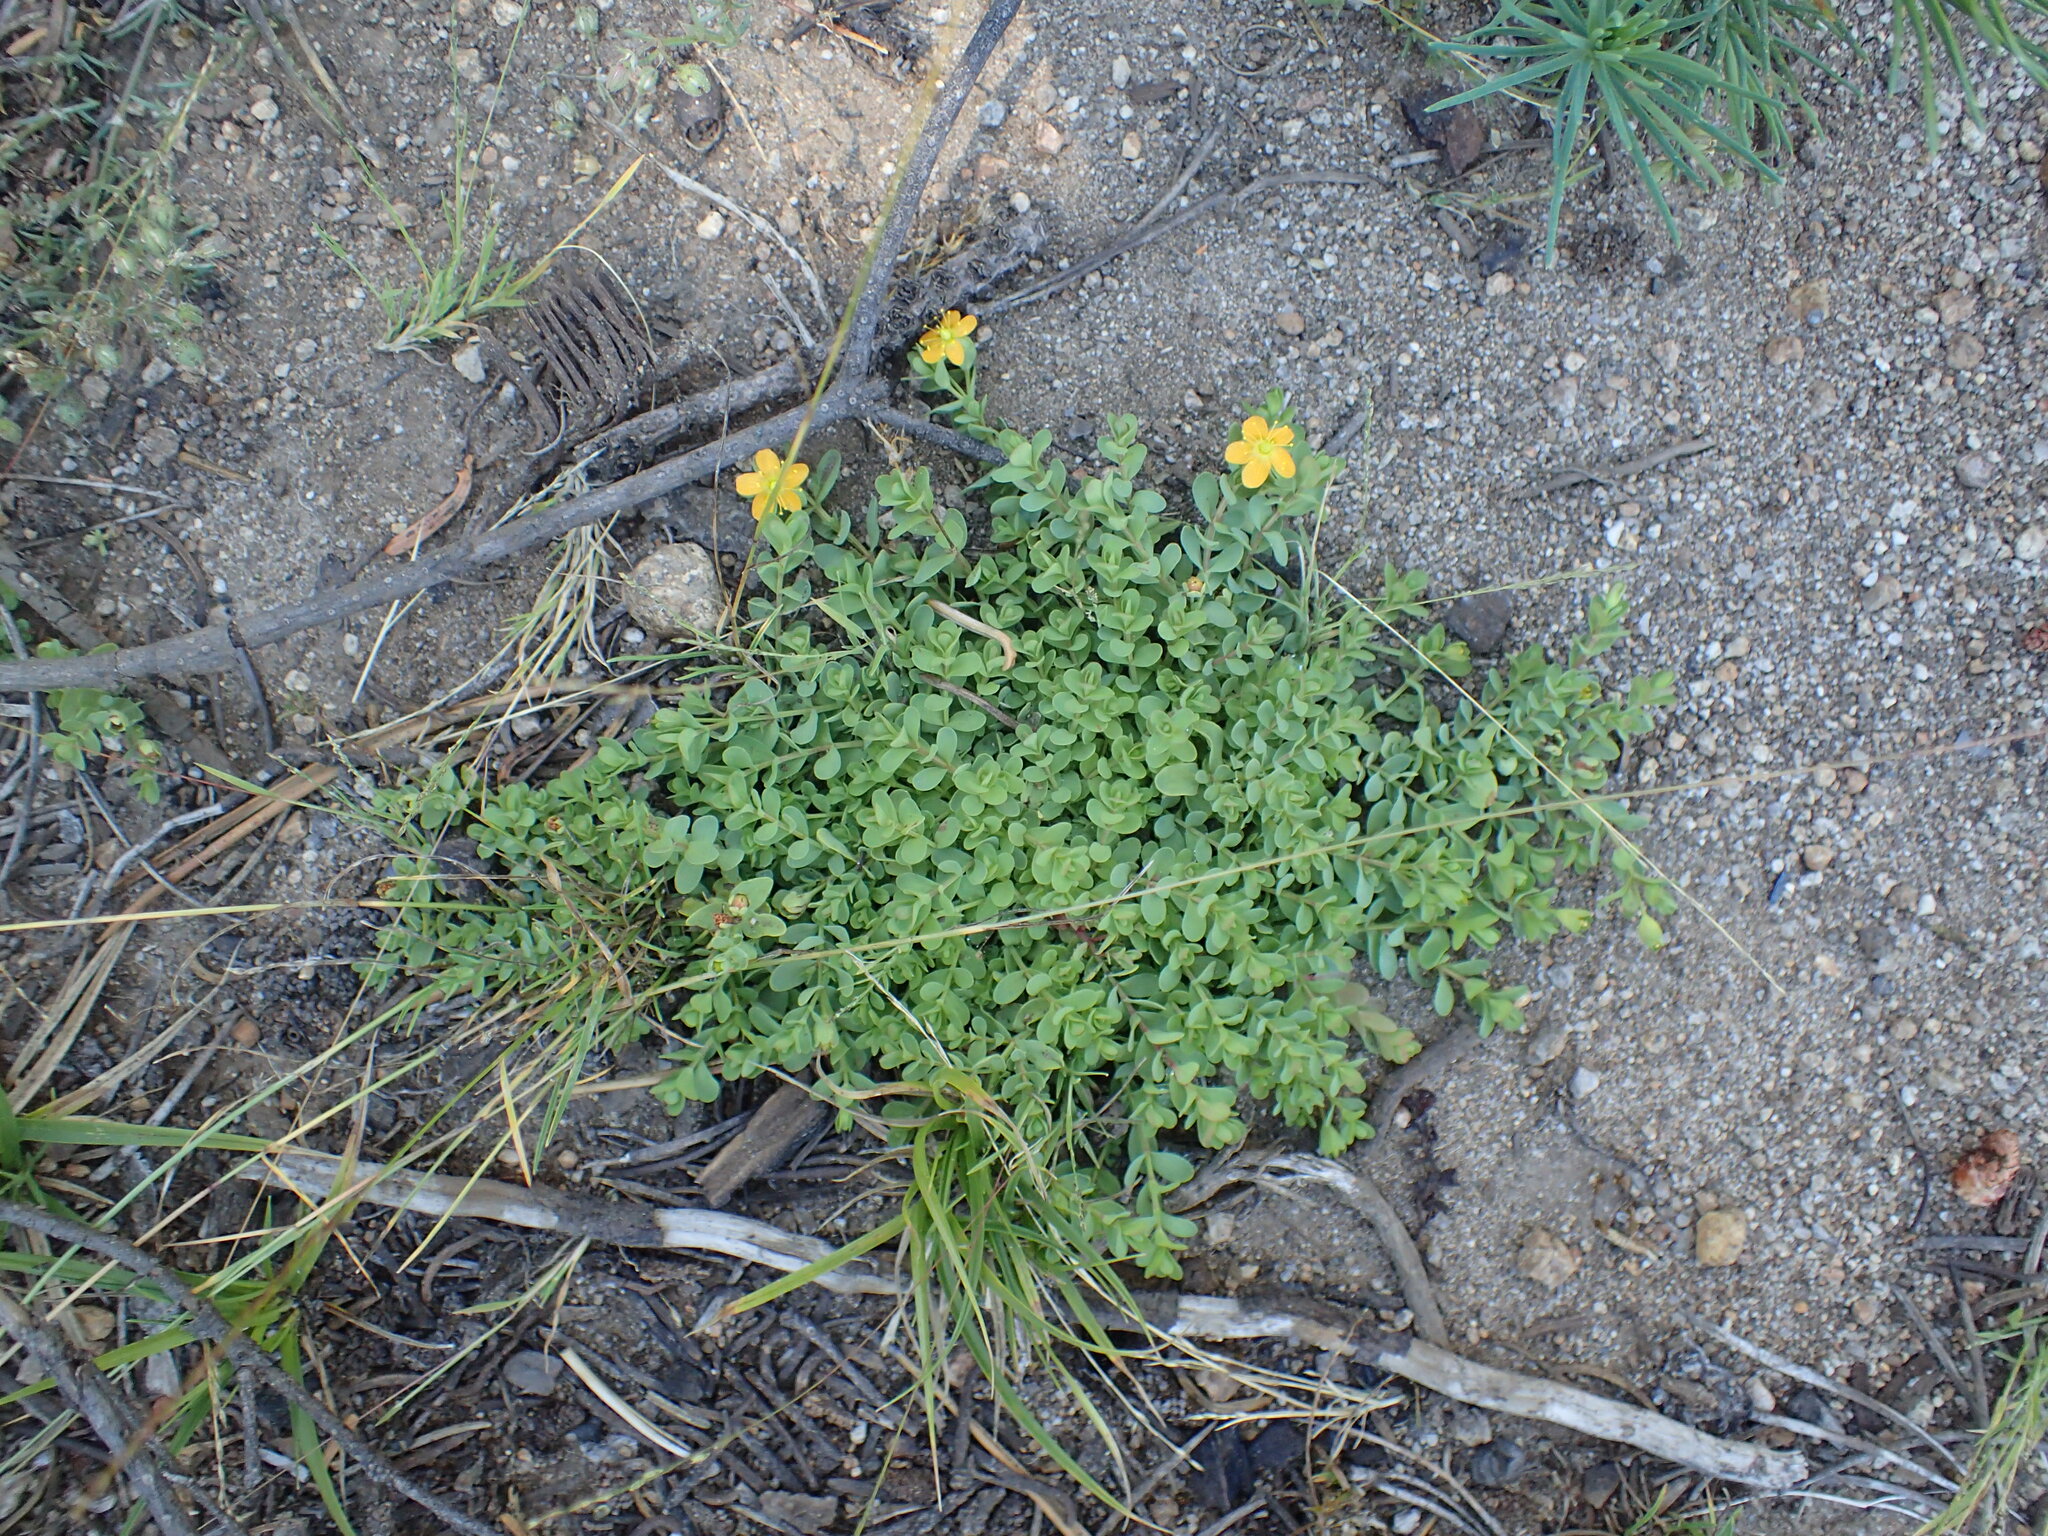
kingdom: Plantae
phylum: Tracheophyta
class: Magnoliopsida
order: Malpighiales
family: Hypericaceae
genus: Hypericum
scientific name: Hypericum anagalloides
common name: Bog st. john's-wort
